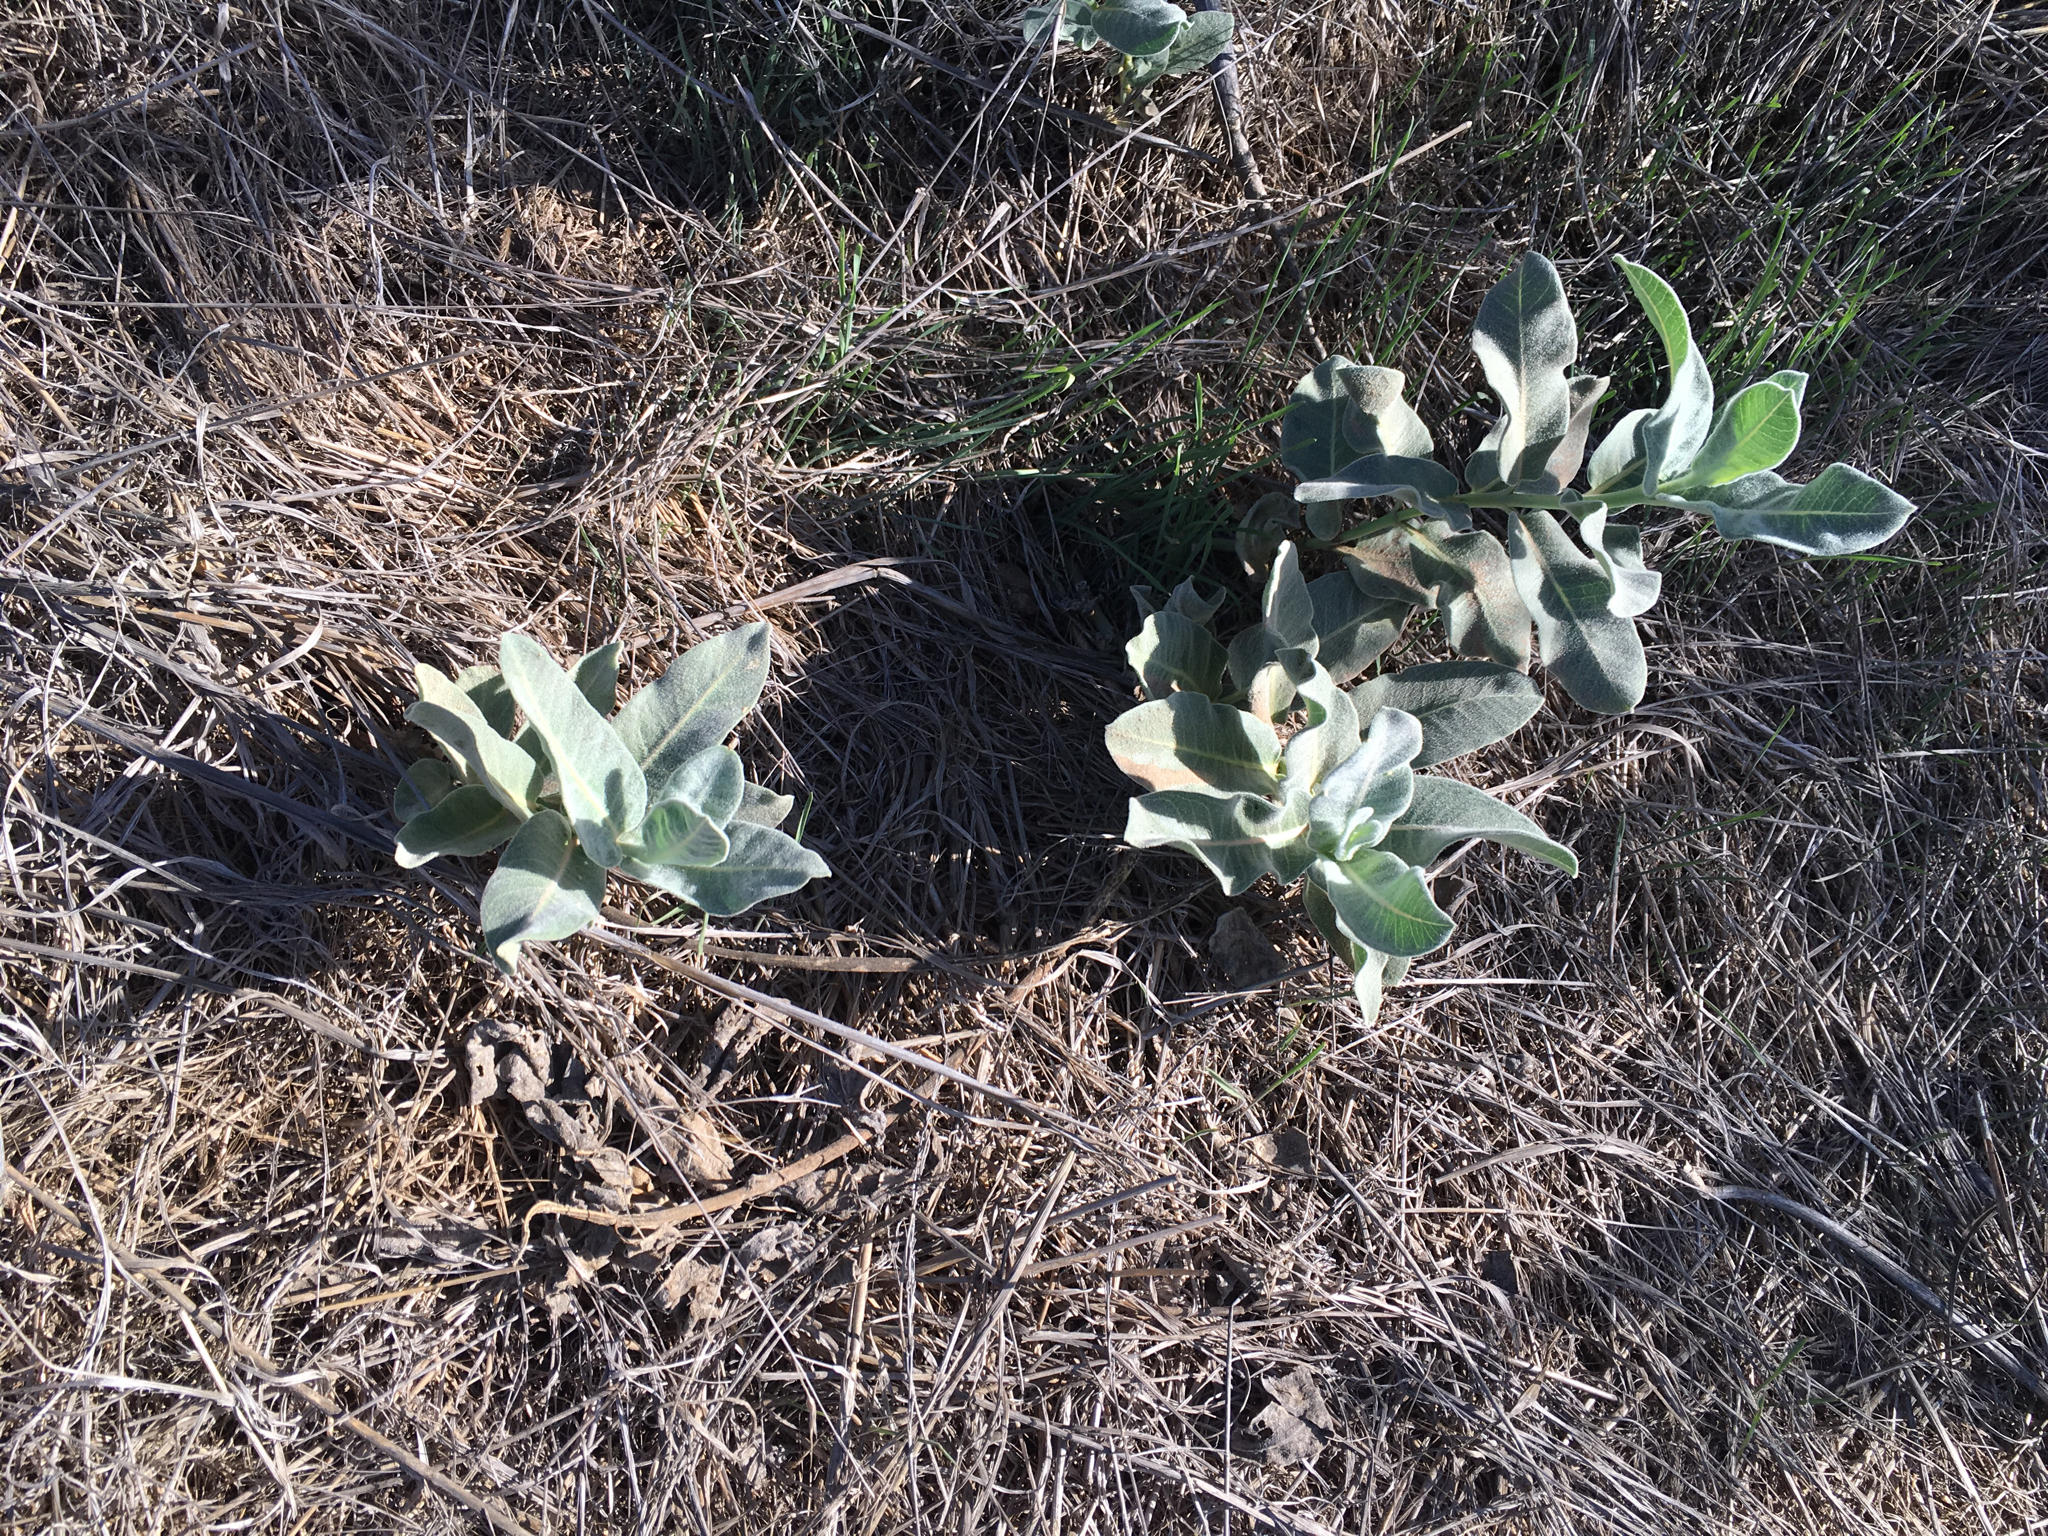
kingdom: Plantae
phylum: Tracheophyta
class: Magnoliopsida
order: Gentianales
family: Apocynaceae
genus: Asclepias
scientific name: Asclepias eriocarpa
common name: Indian milkweed
